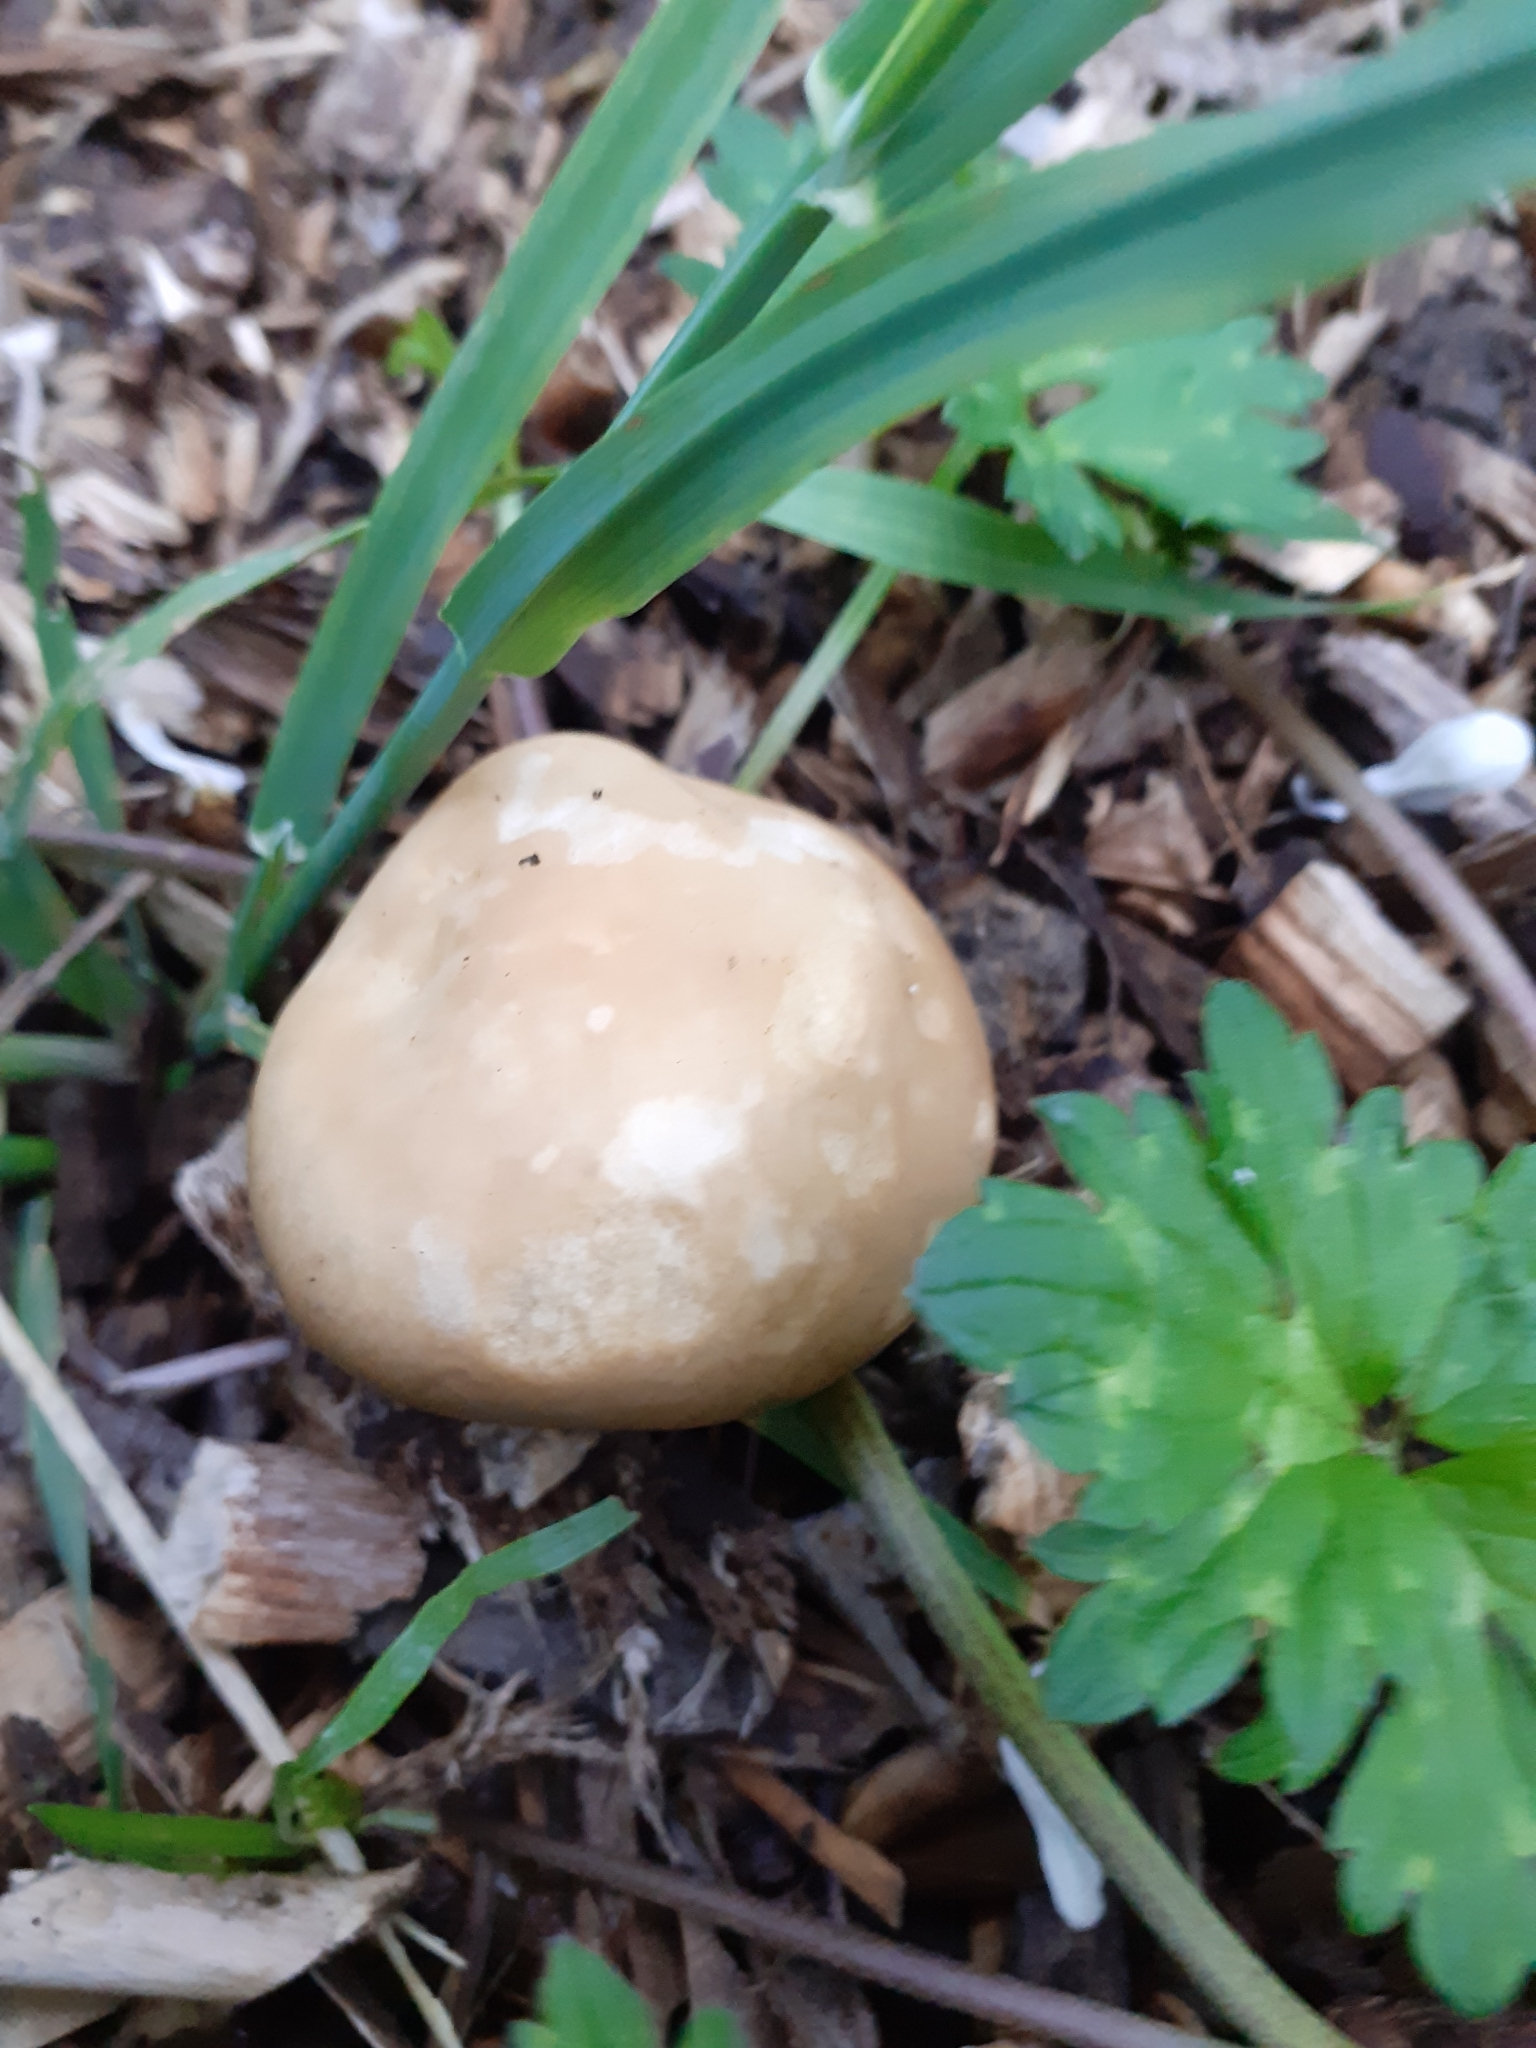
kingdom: Fungi
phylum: Basidiomycota
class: Agaricomycetes
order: Agaricales
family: Strophariaceae
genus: Agrocybe
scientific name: Agrocybe praecox
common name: Spring fieldcap
